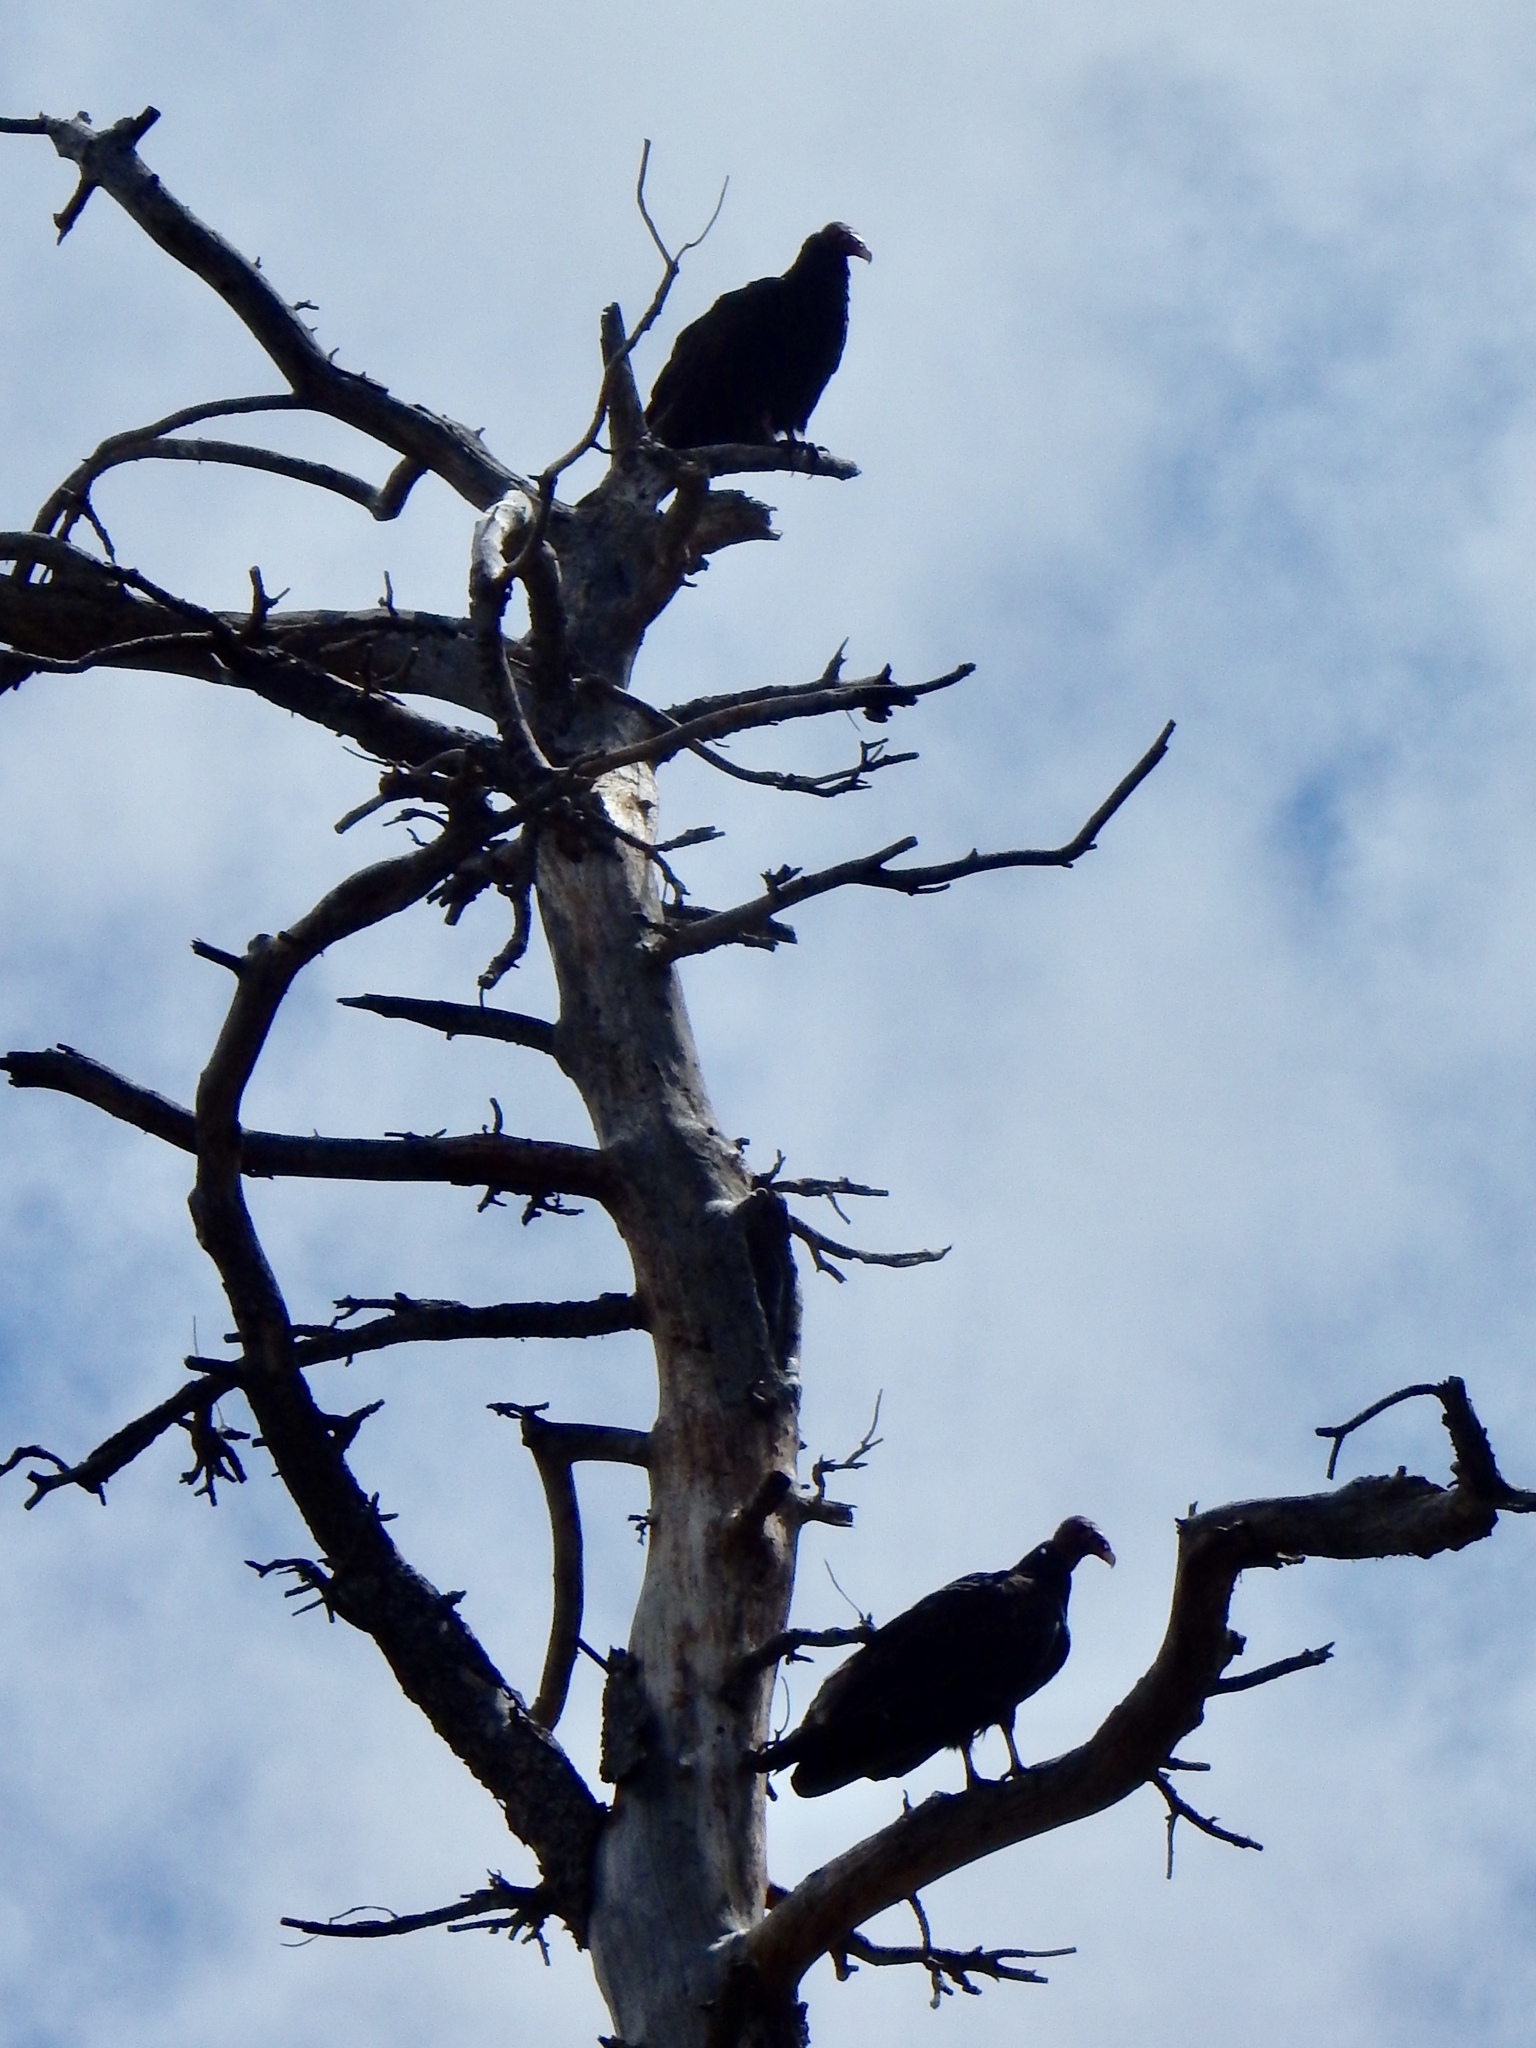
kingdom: Animalia
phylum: Chordata
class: Aves
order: Accipitriformes
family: Cathartidae
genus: Cathartes
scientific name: Cathartes aura
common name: Turkey vulture
